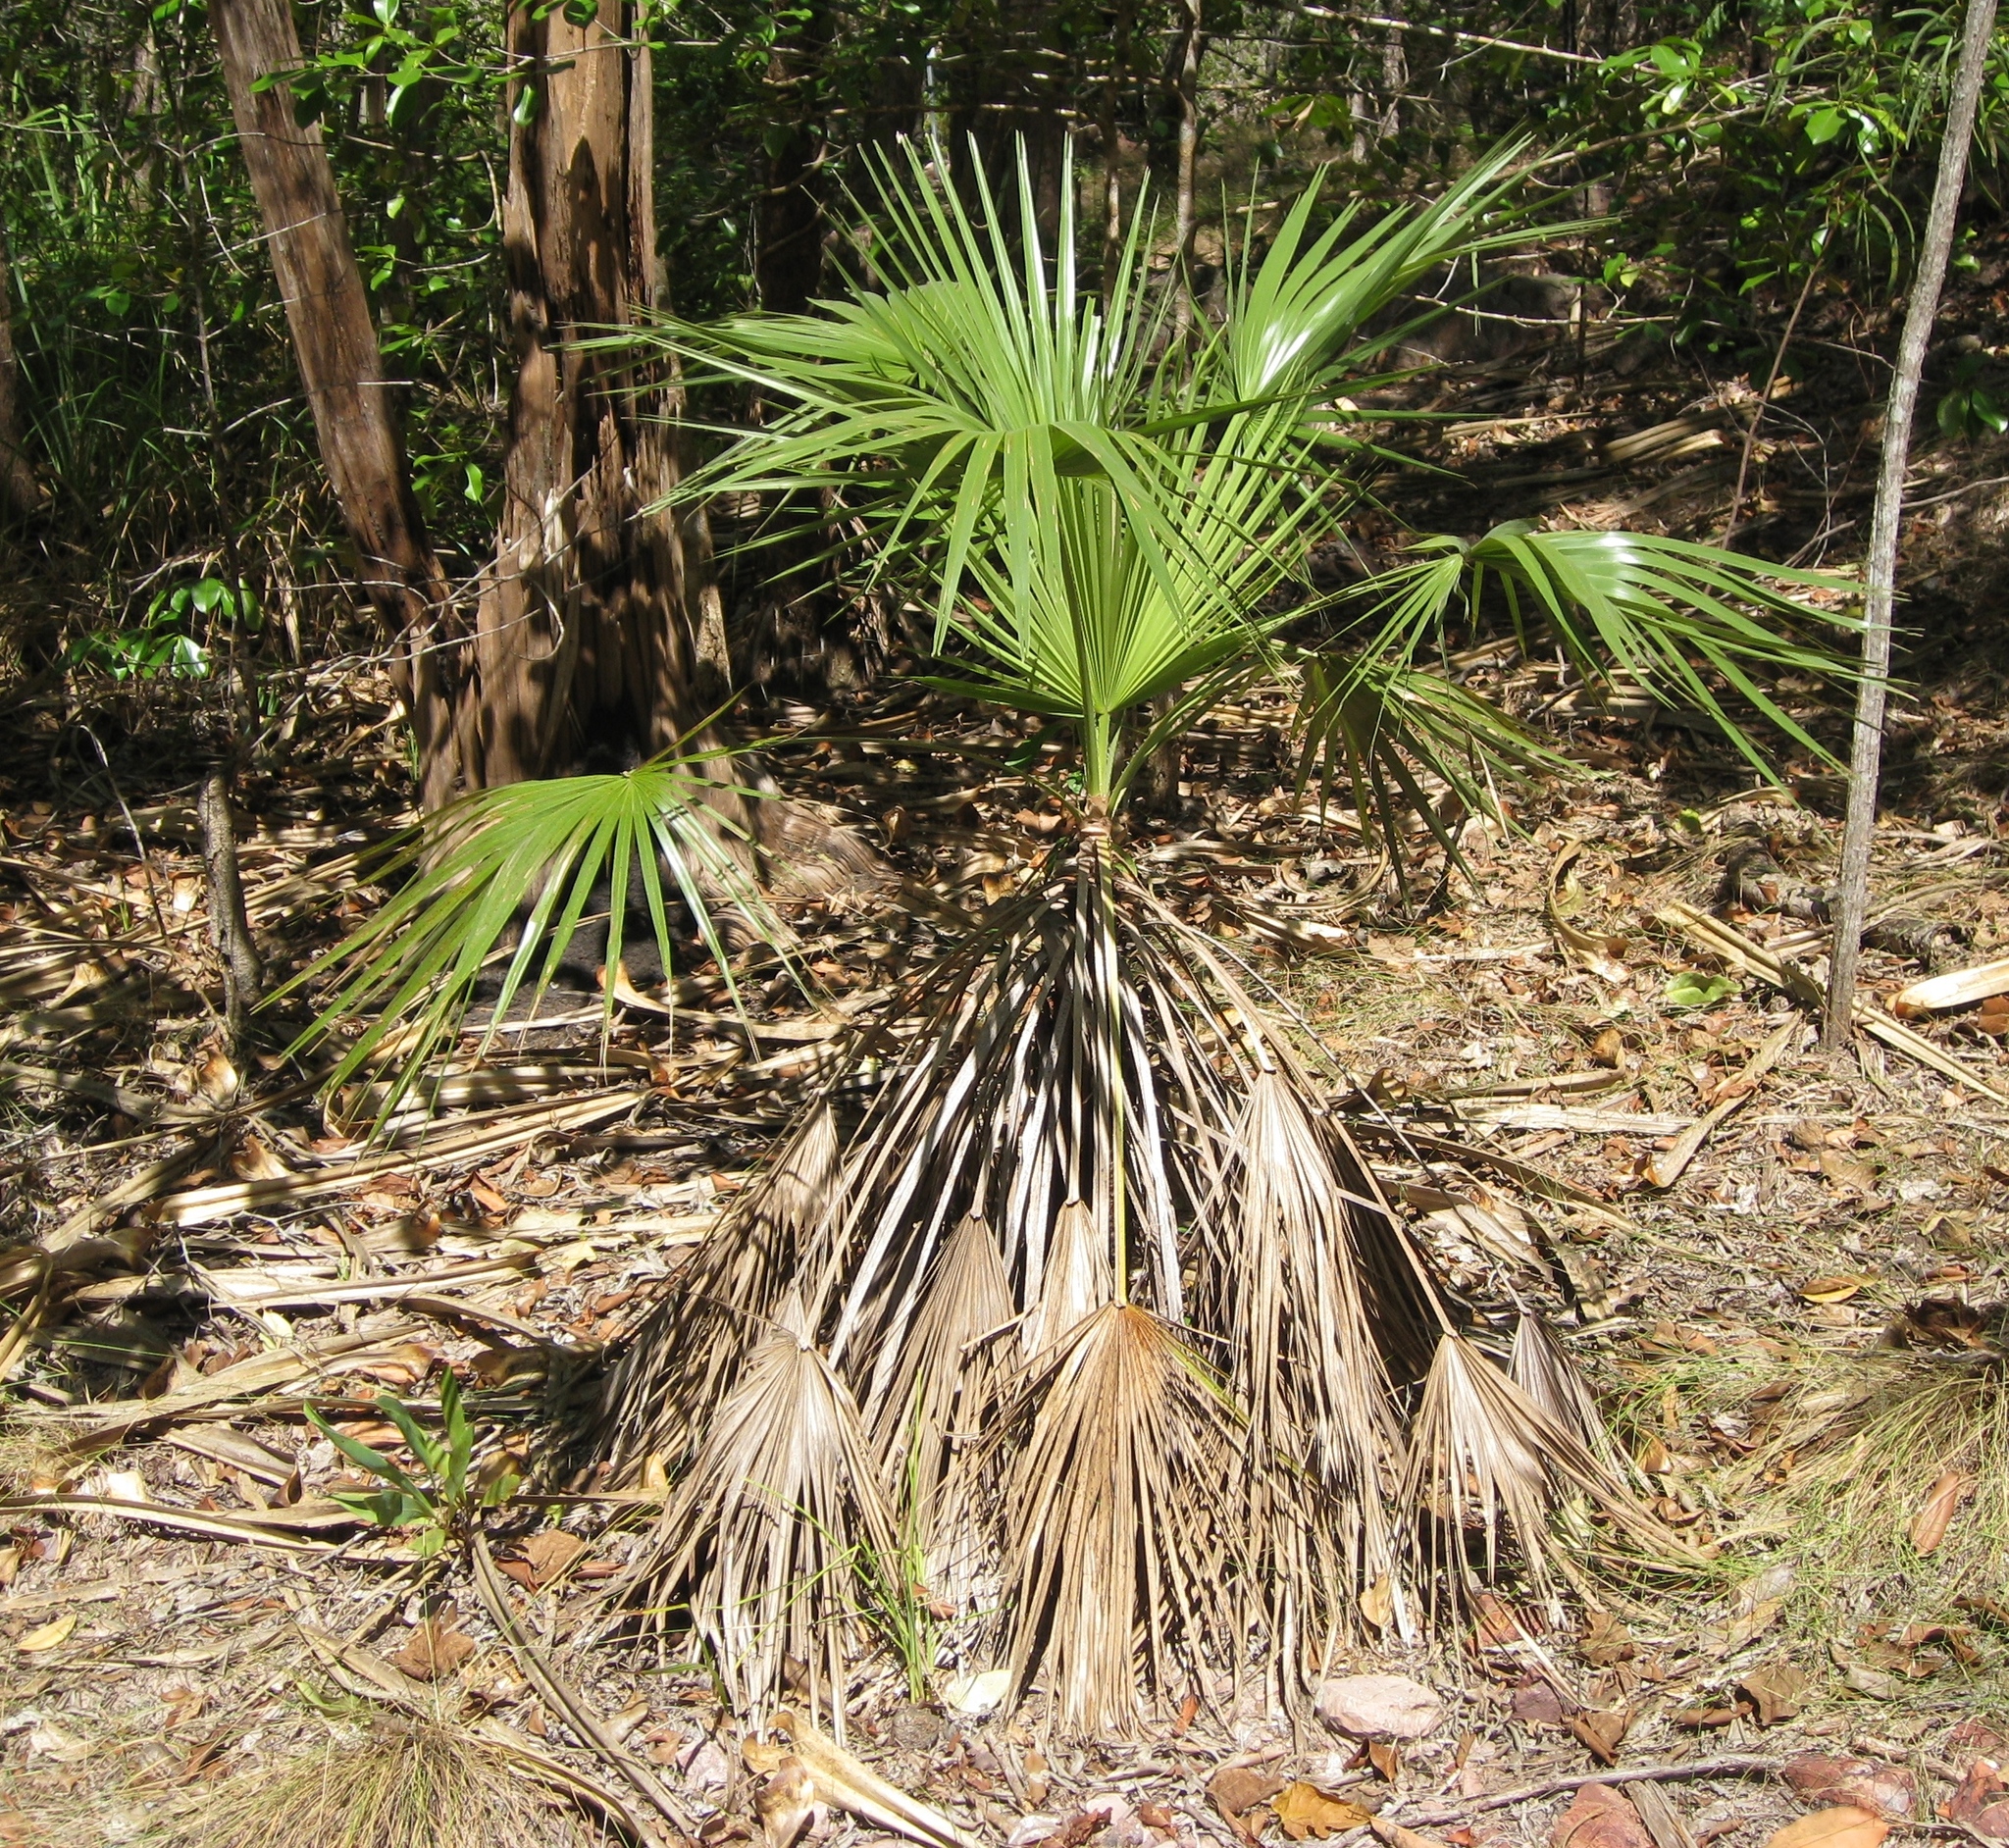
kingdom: Plantae
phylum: Tracheophyta
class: Liliopsida
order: Arecales
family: Arecaceae
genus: Livistona
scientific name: Livistona humilis
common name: Cabbage palm
